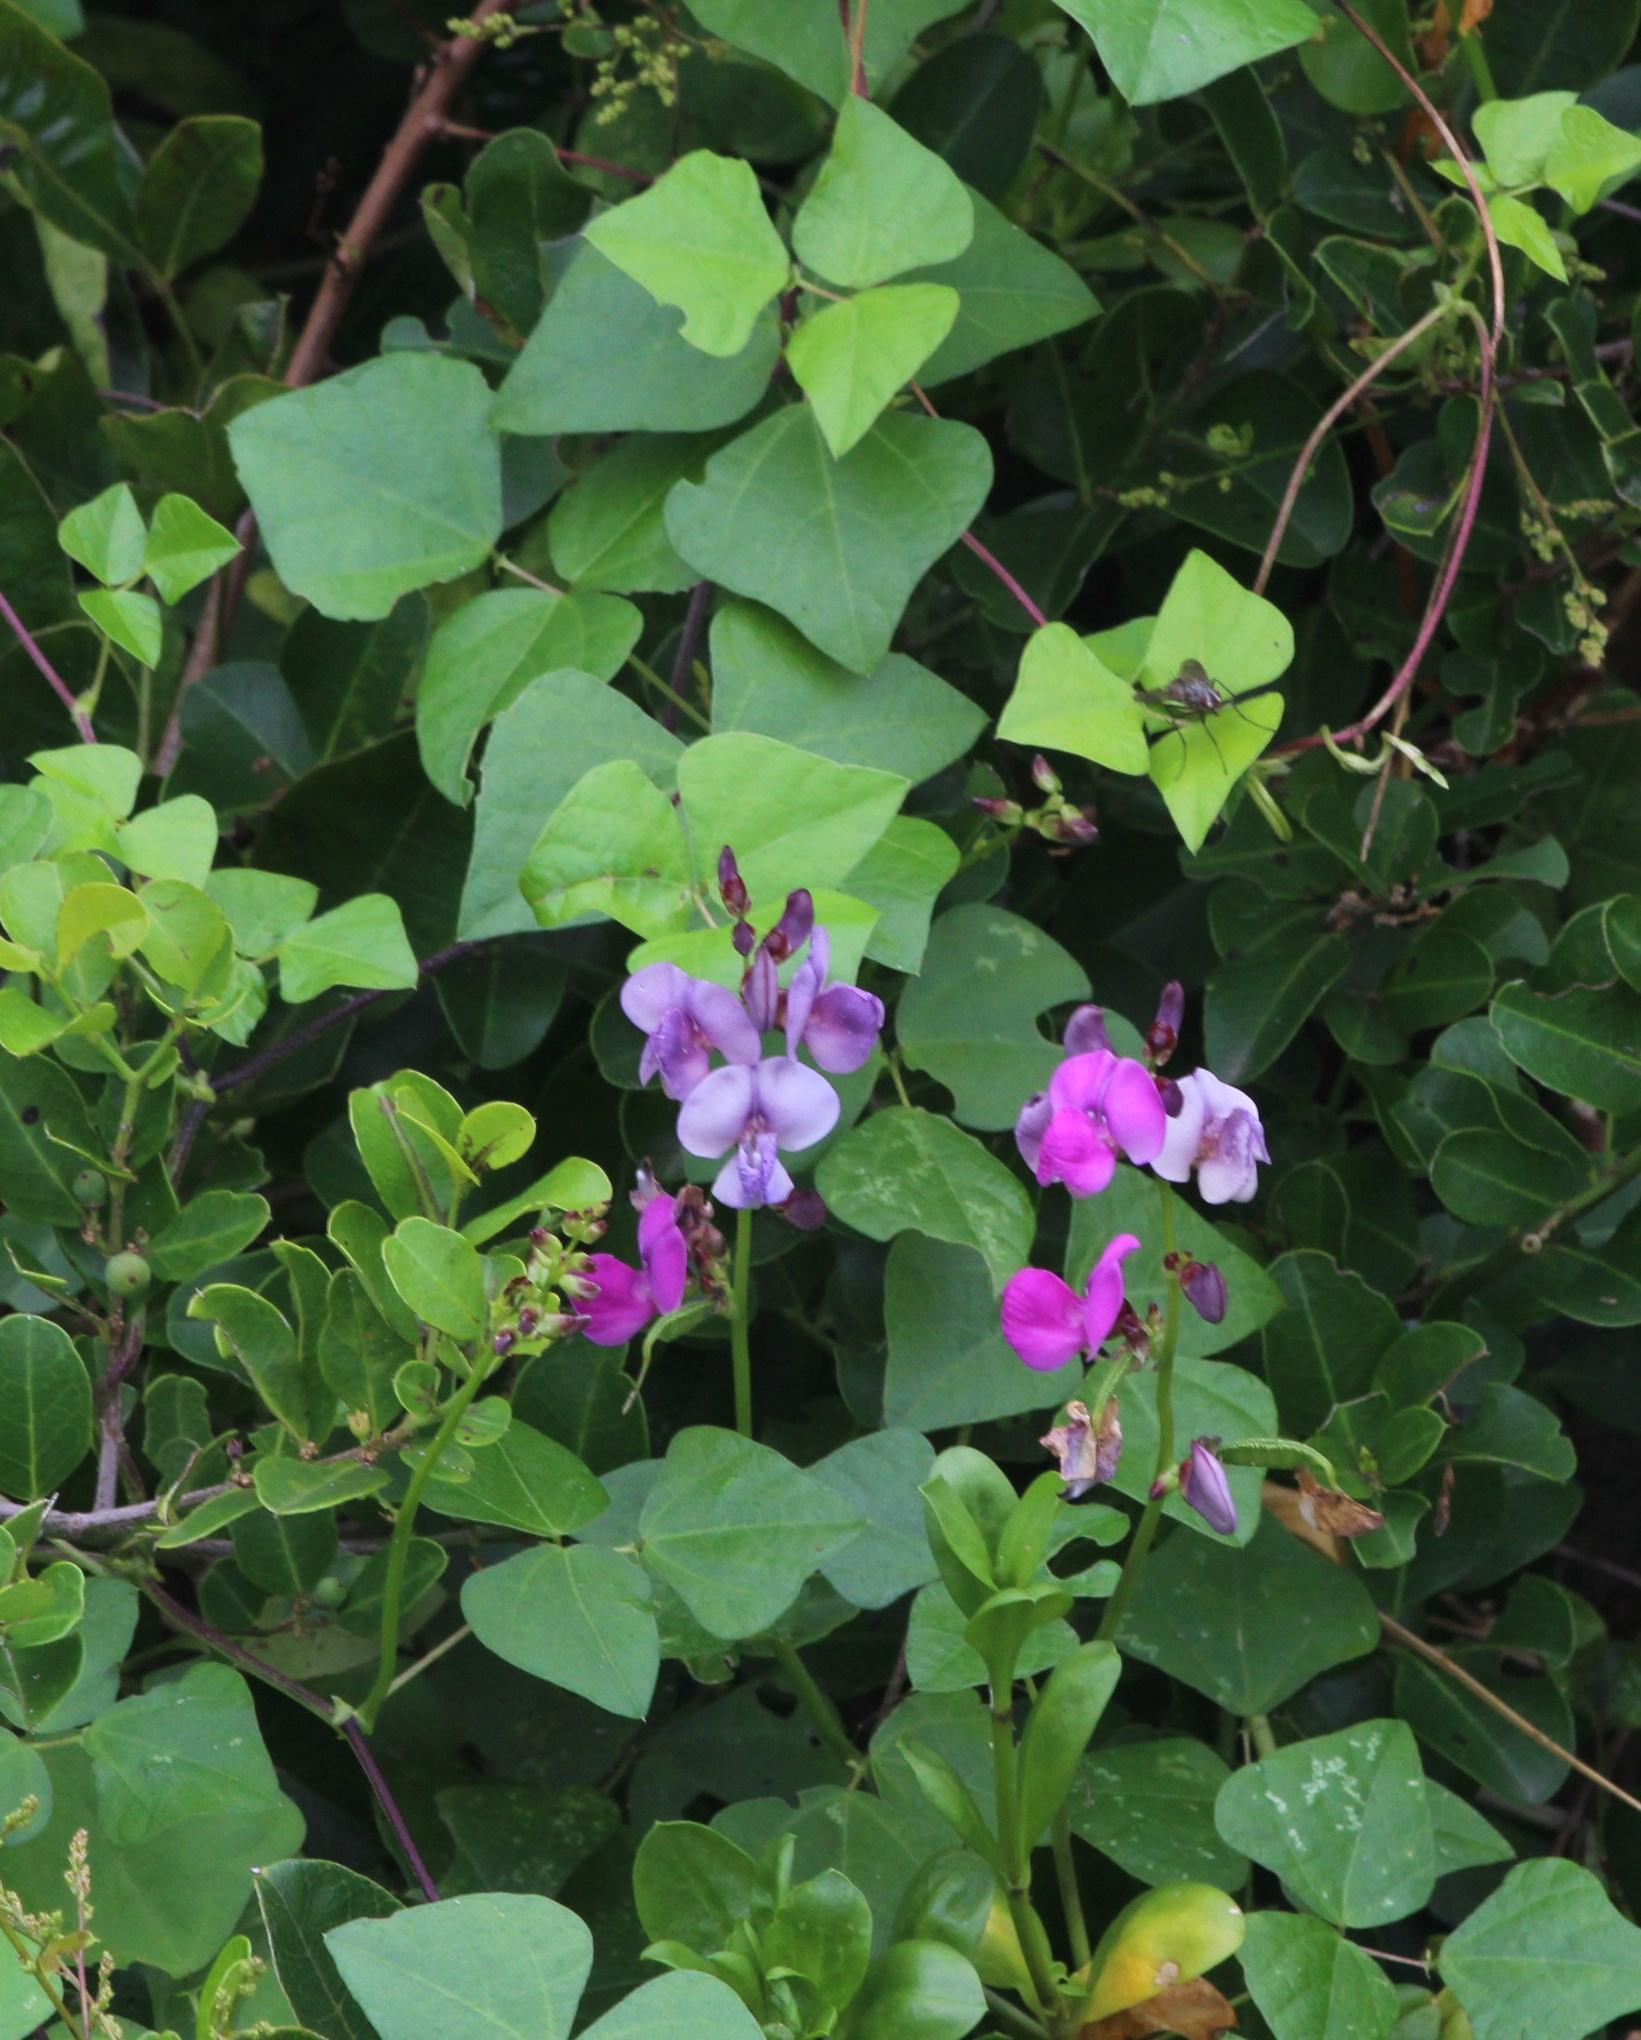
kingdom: Plantae
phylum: Tracheophyta
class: Magnoliopsida
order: Fabales
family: Fabaceae
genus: Lablab
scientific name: Lablab purpureus
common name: Lablab-bean
